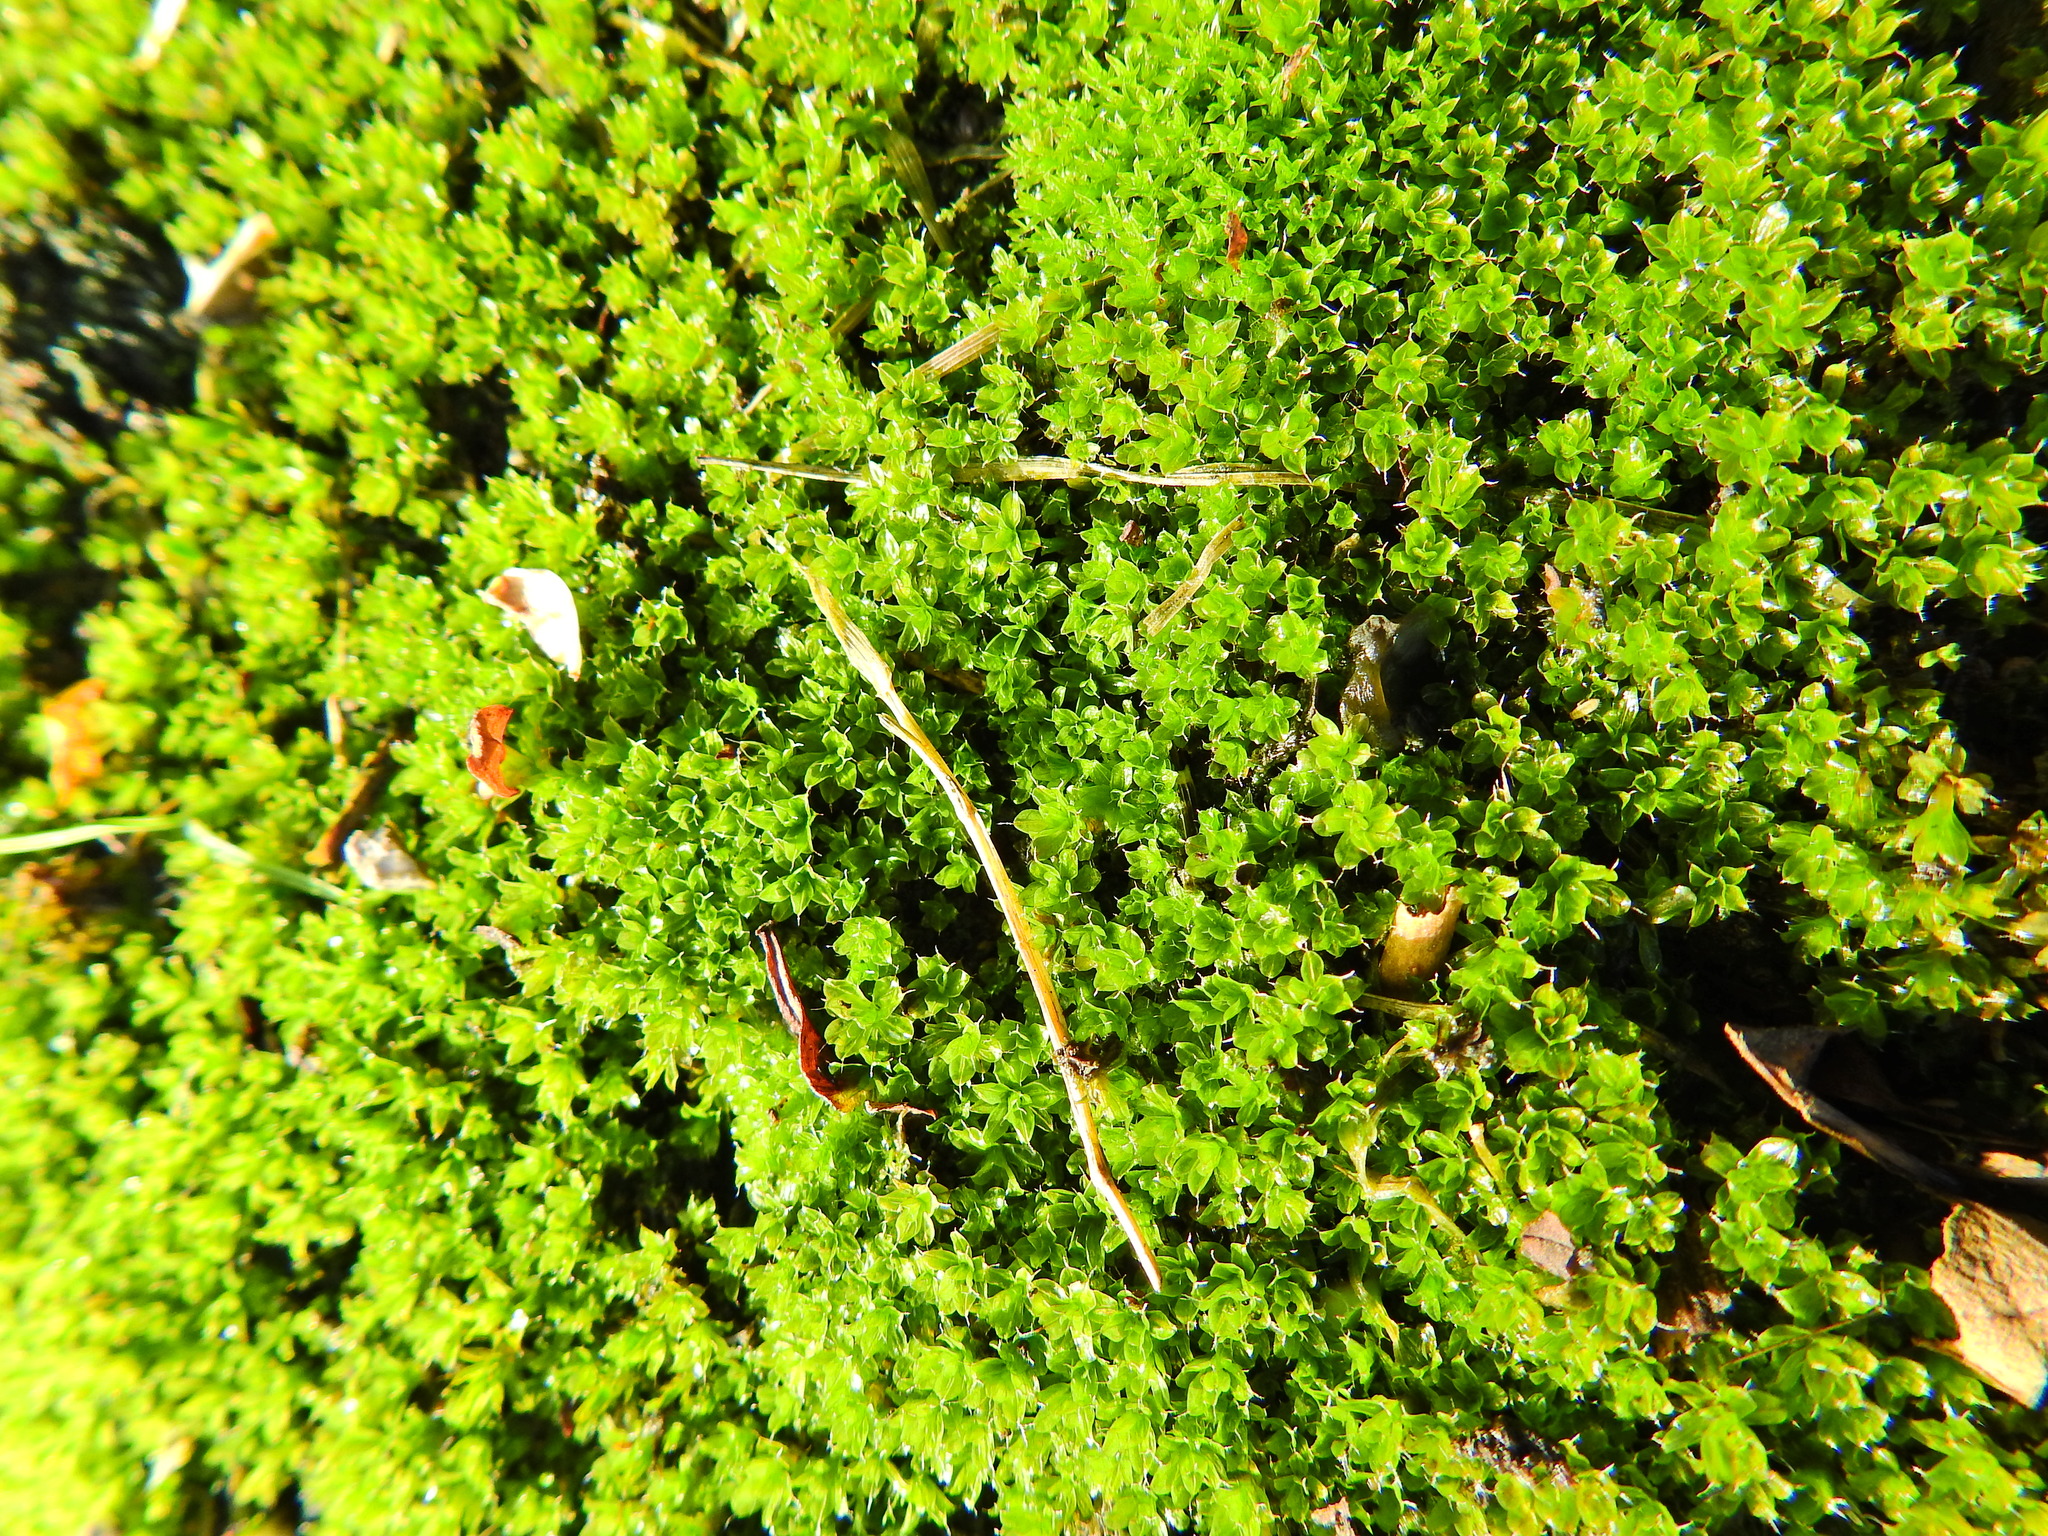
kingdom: Plantae
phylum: Bryophyta
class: Bryopsida
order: Bryales
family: Bryaceae
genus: Rosulabryum
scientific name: Rosulabryum capillare
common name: Capillary thread-moss
